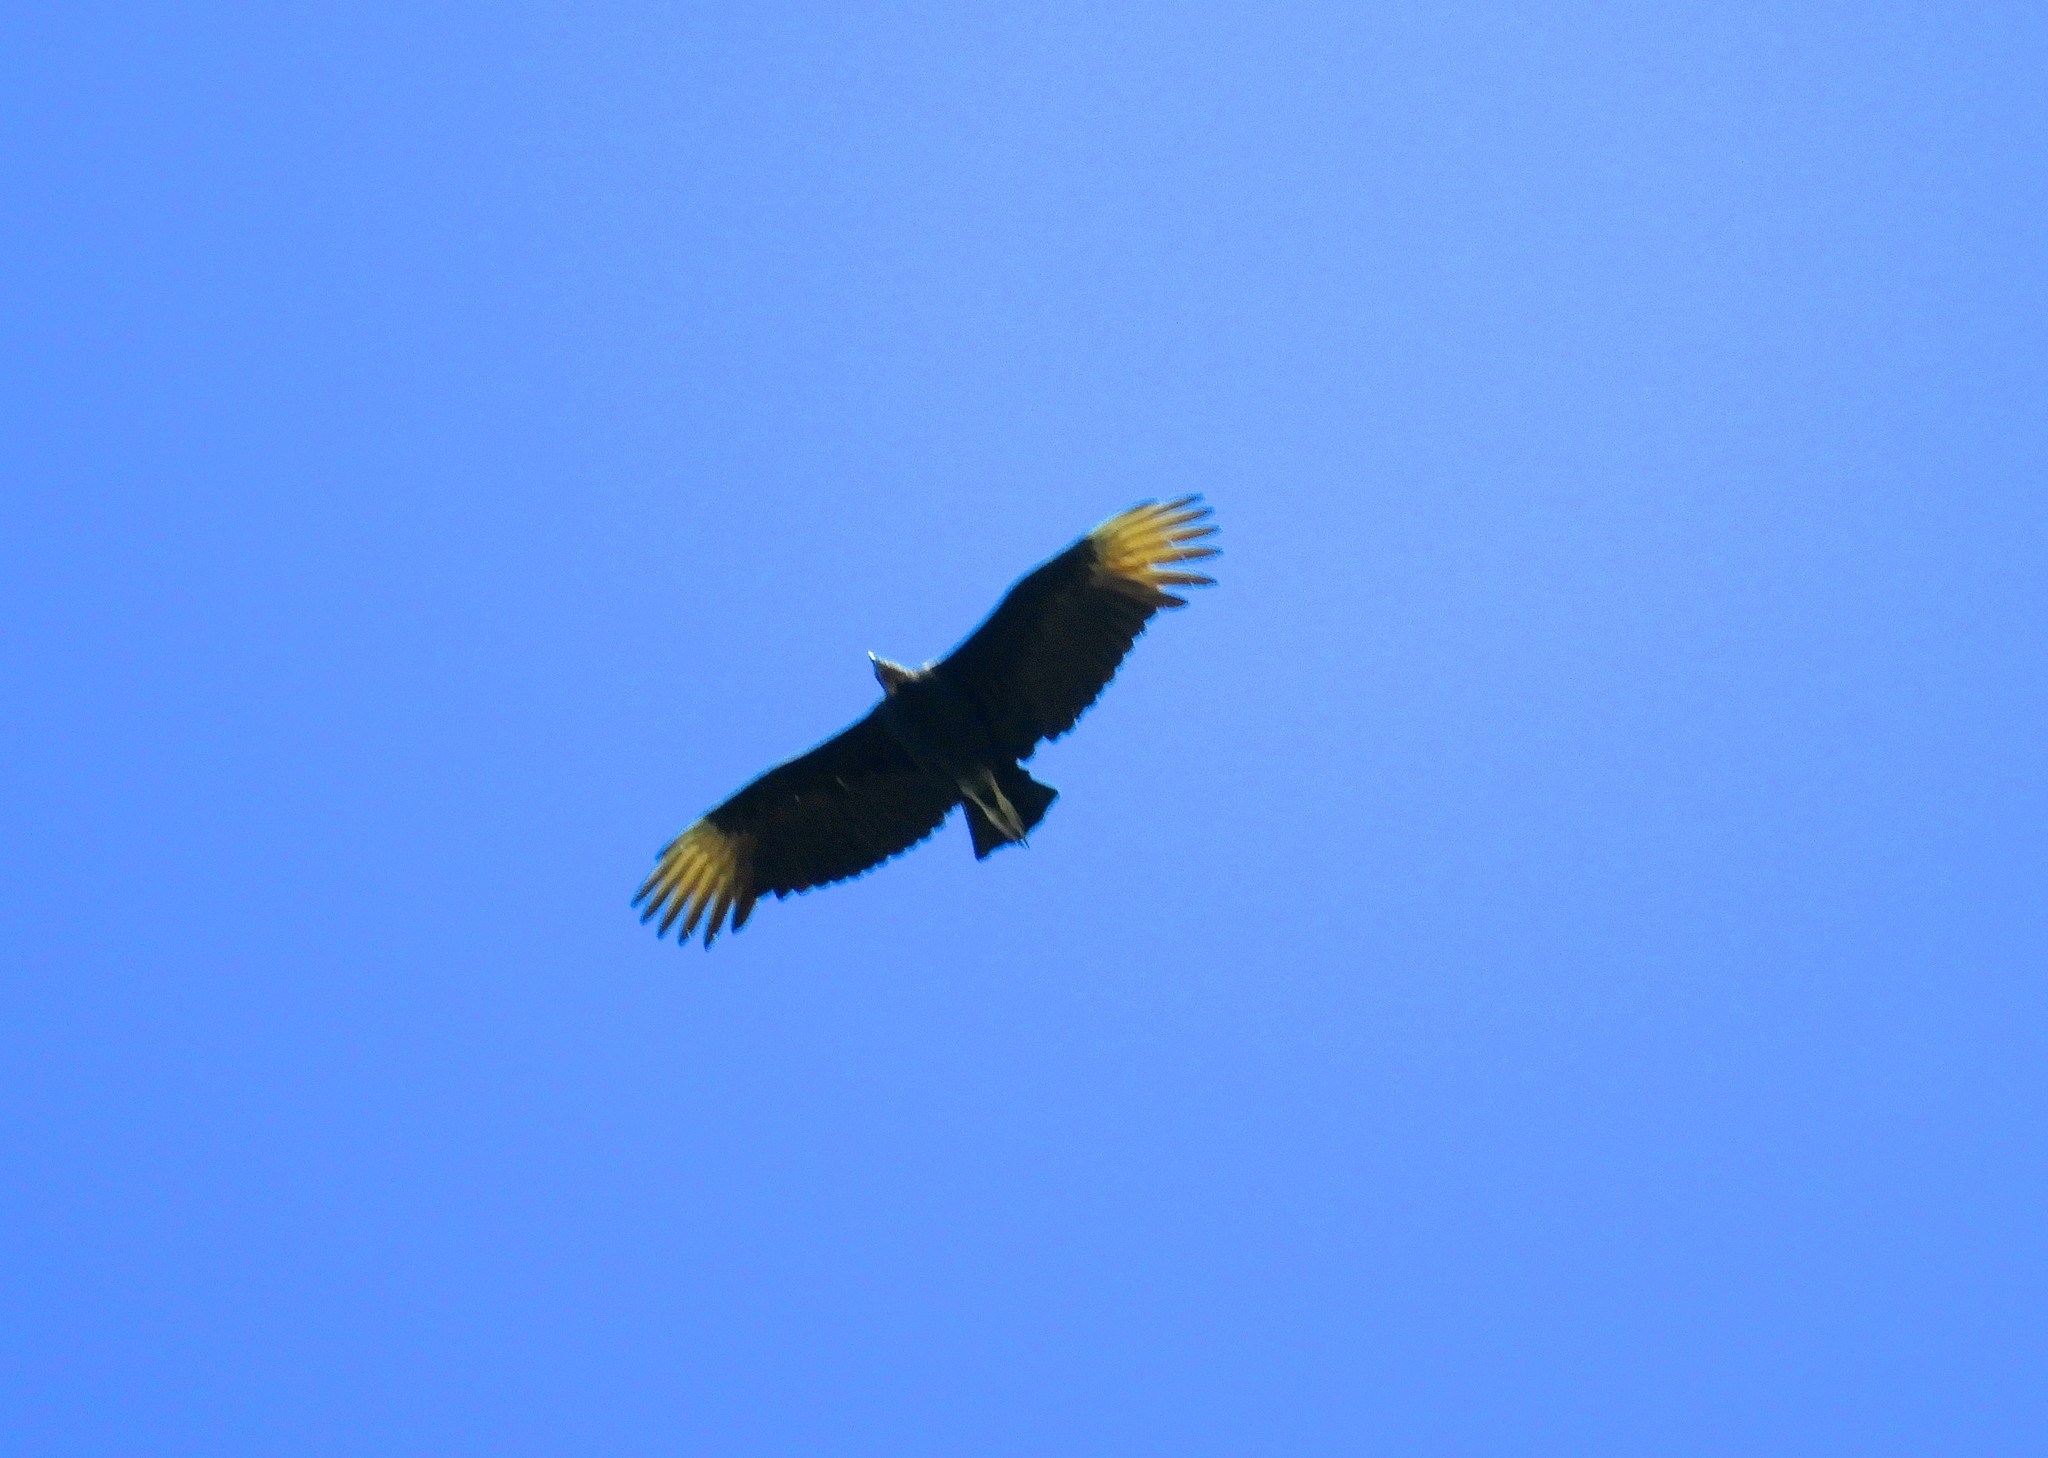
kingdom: Animalia
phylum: Chordata
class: Aves
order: Accipitriformes
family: Cathartidae
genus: Coragyps
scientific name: Coragyps atratus
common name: Black vulture
